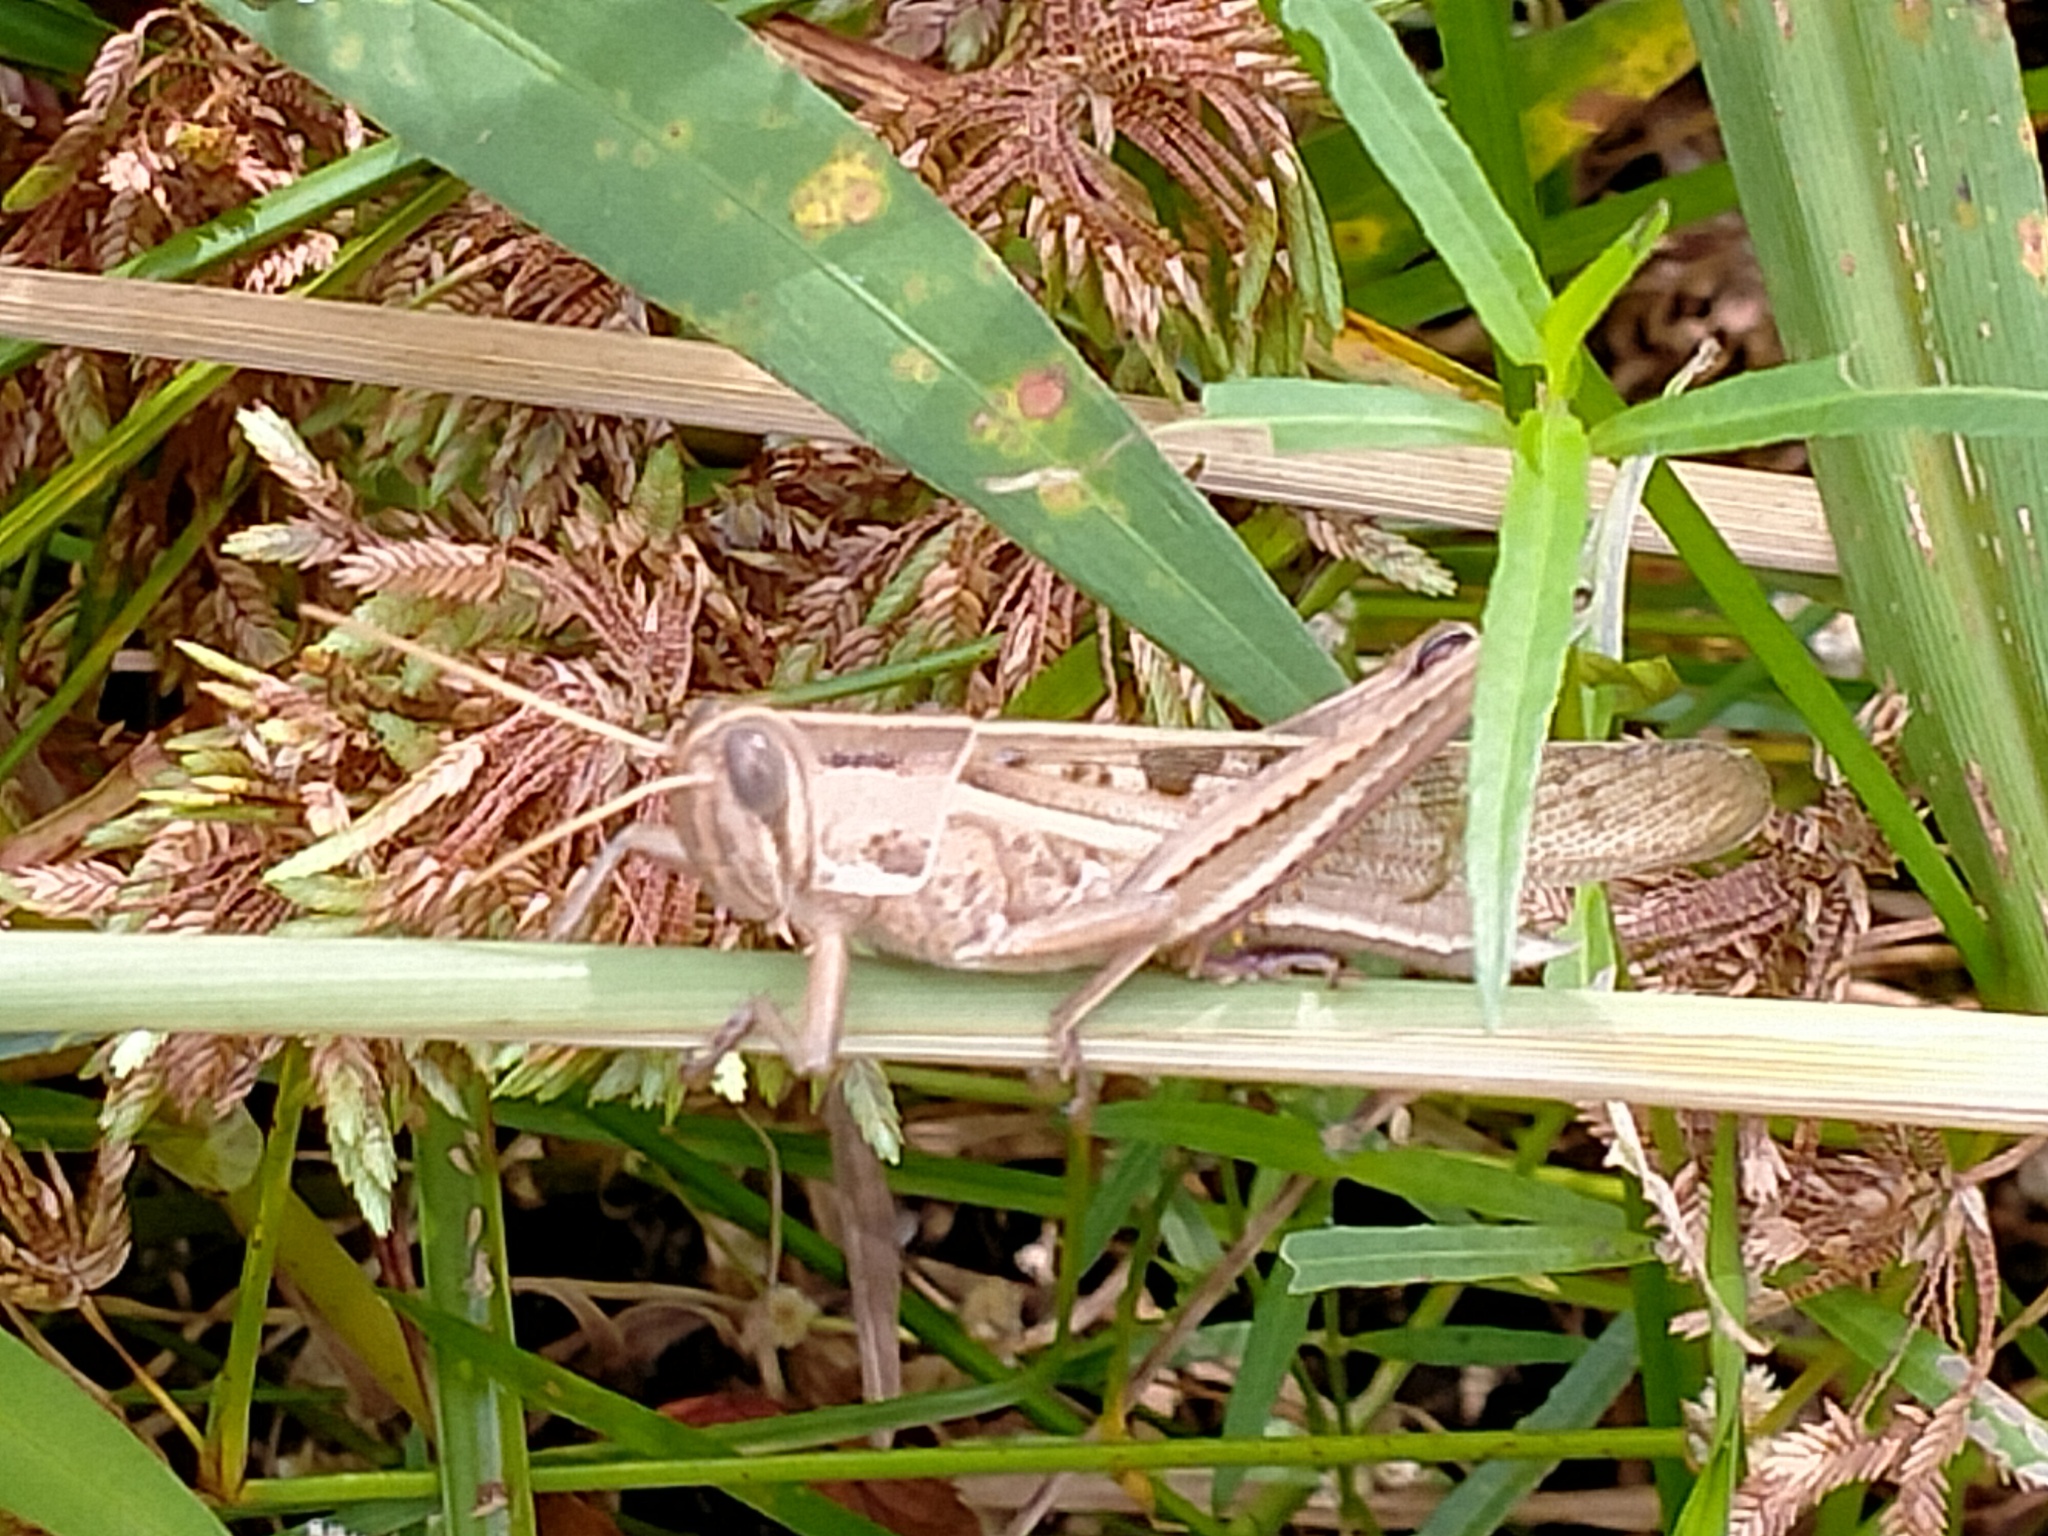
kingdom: Animalia
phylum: Arthropoda
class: Insecta
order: Orthoptera
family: Acrididae
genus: Austracris
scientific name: Austracris proxima
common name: Confusing spur-throated locust
